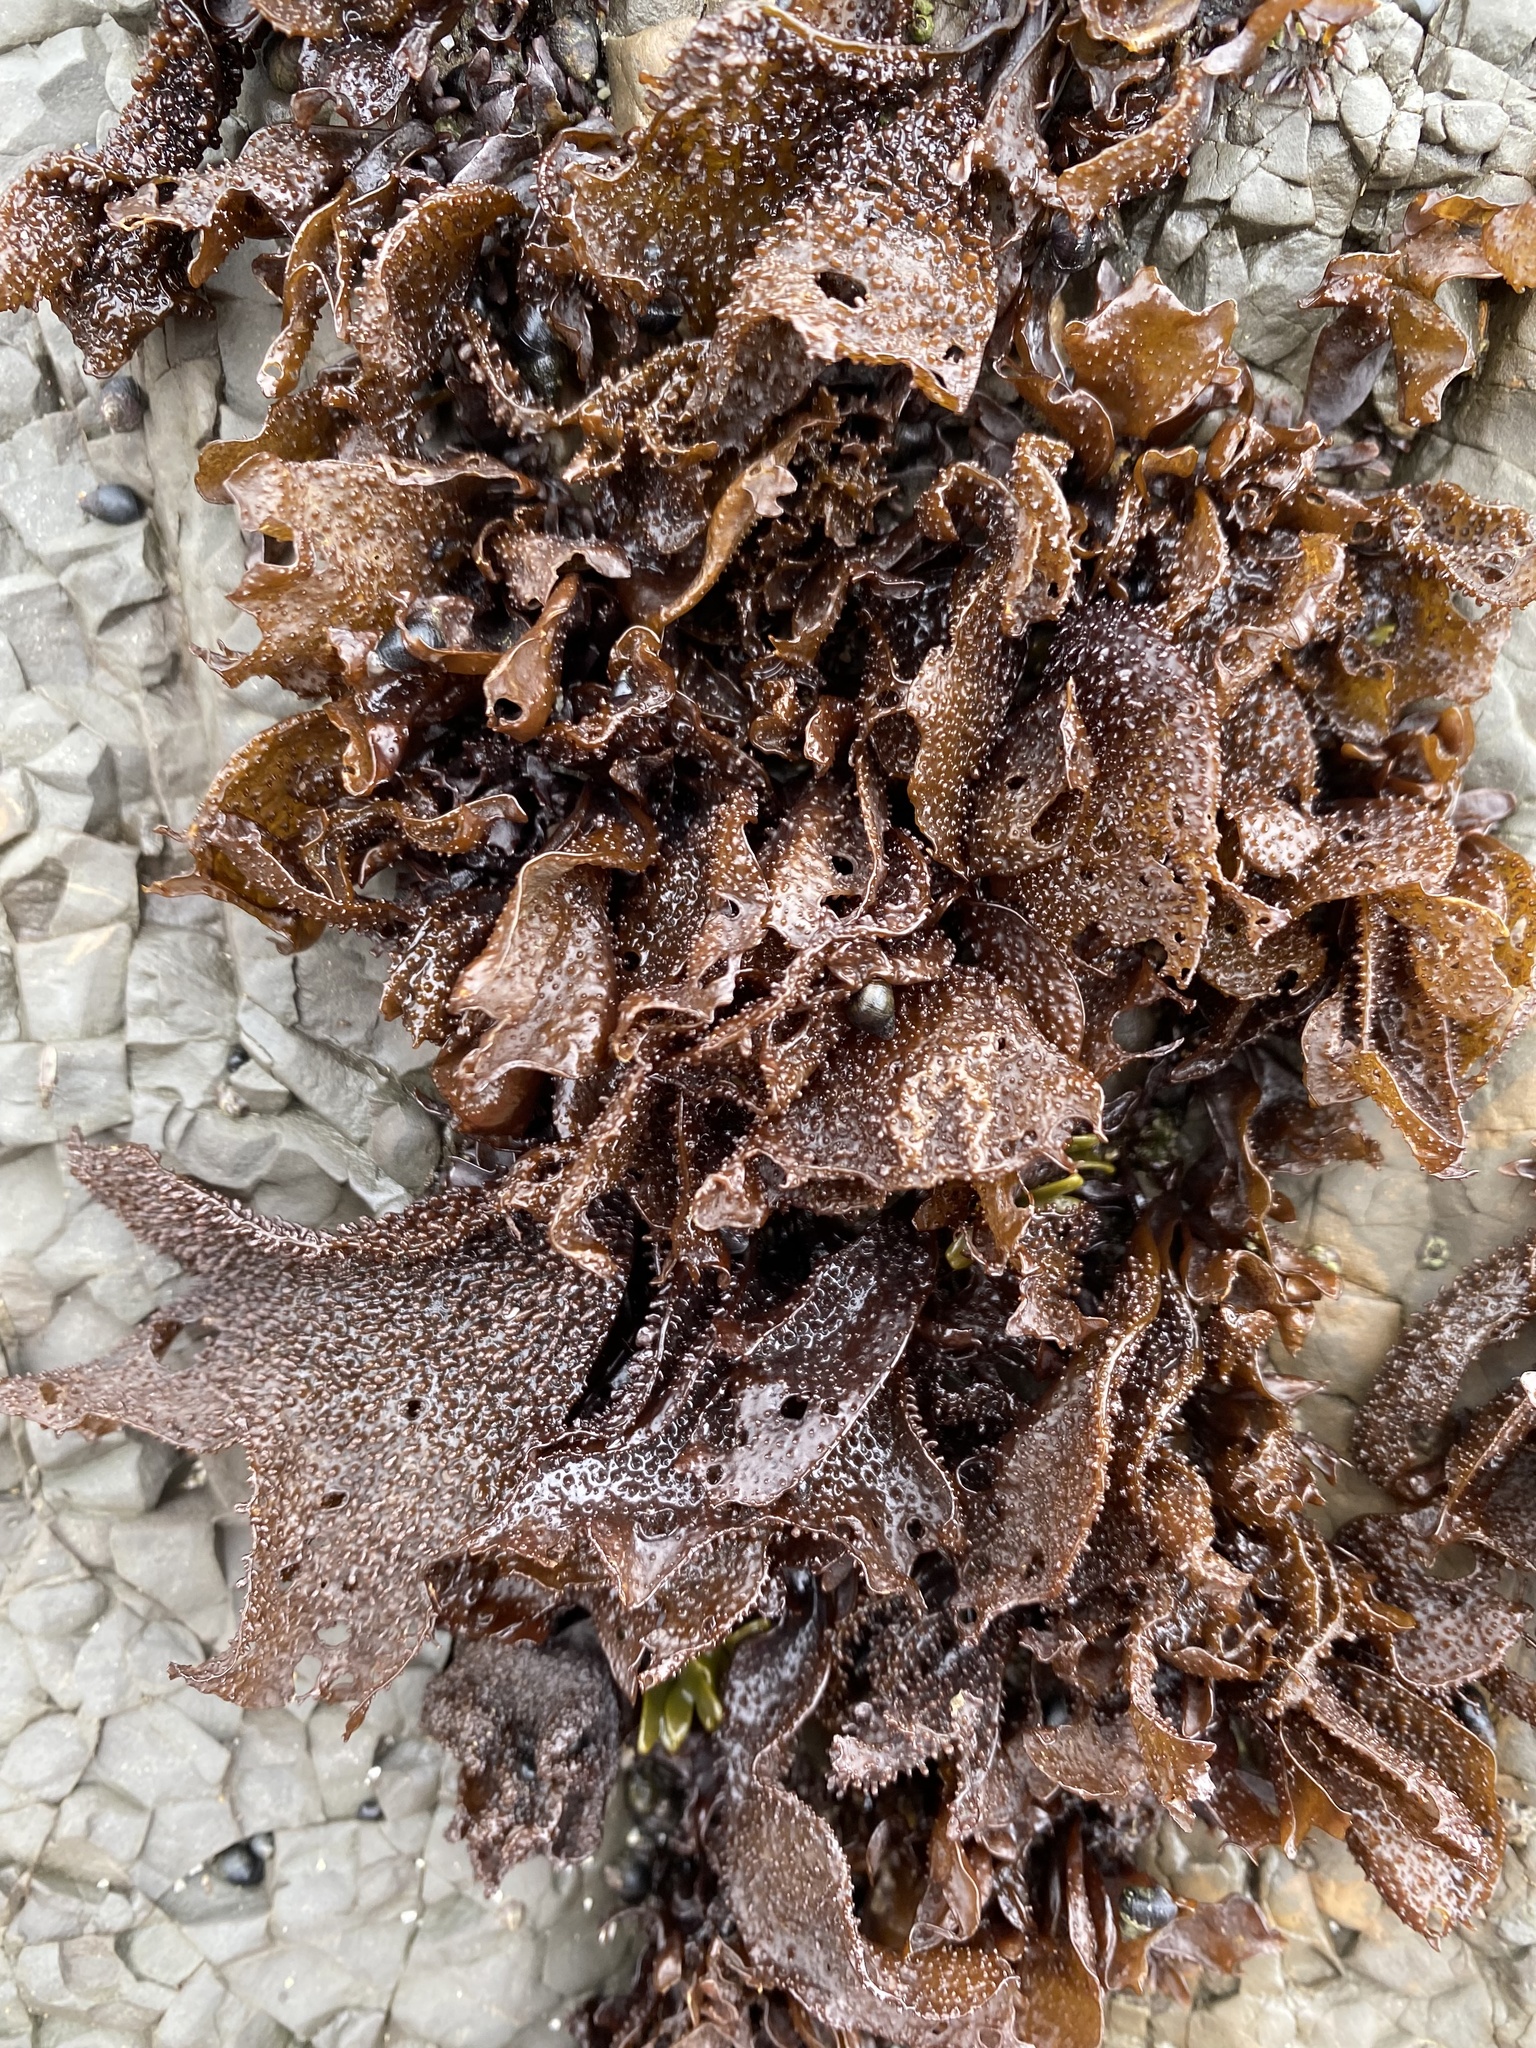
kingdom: Plantae
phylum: Rhodophyta
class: Florideophyceae
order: Gigartinales
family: Phyllophoraceae
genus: Mastocarpus
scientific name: Mastocarpus papillatus
